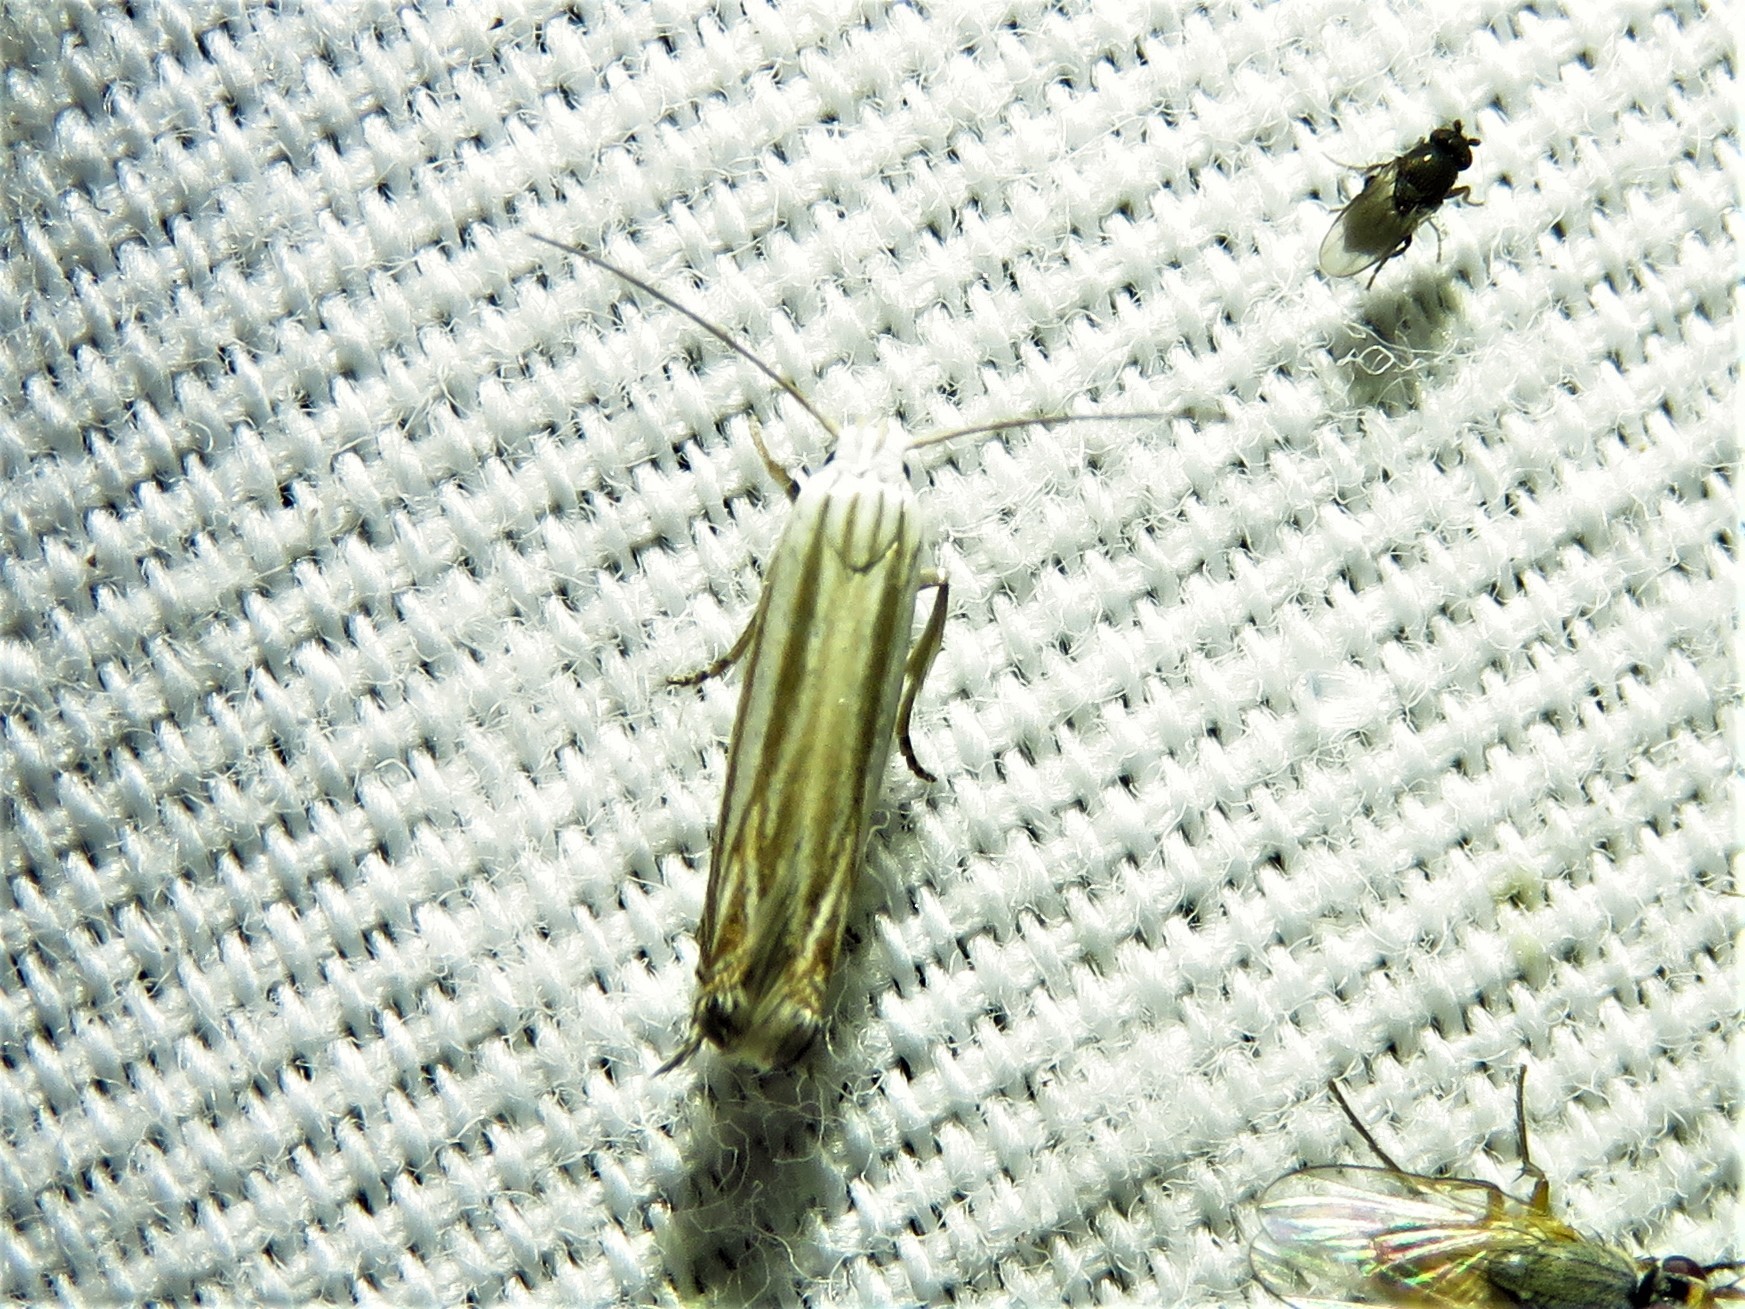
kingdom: Animalia
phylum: Arthropoda
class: Insecta
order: Lepidoptera
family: Gelechiidae
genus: Polyhymno
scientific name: Polyhymno luteostrigella
